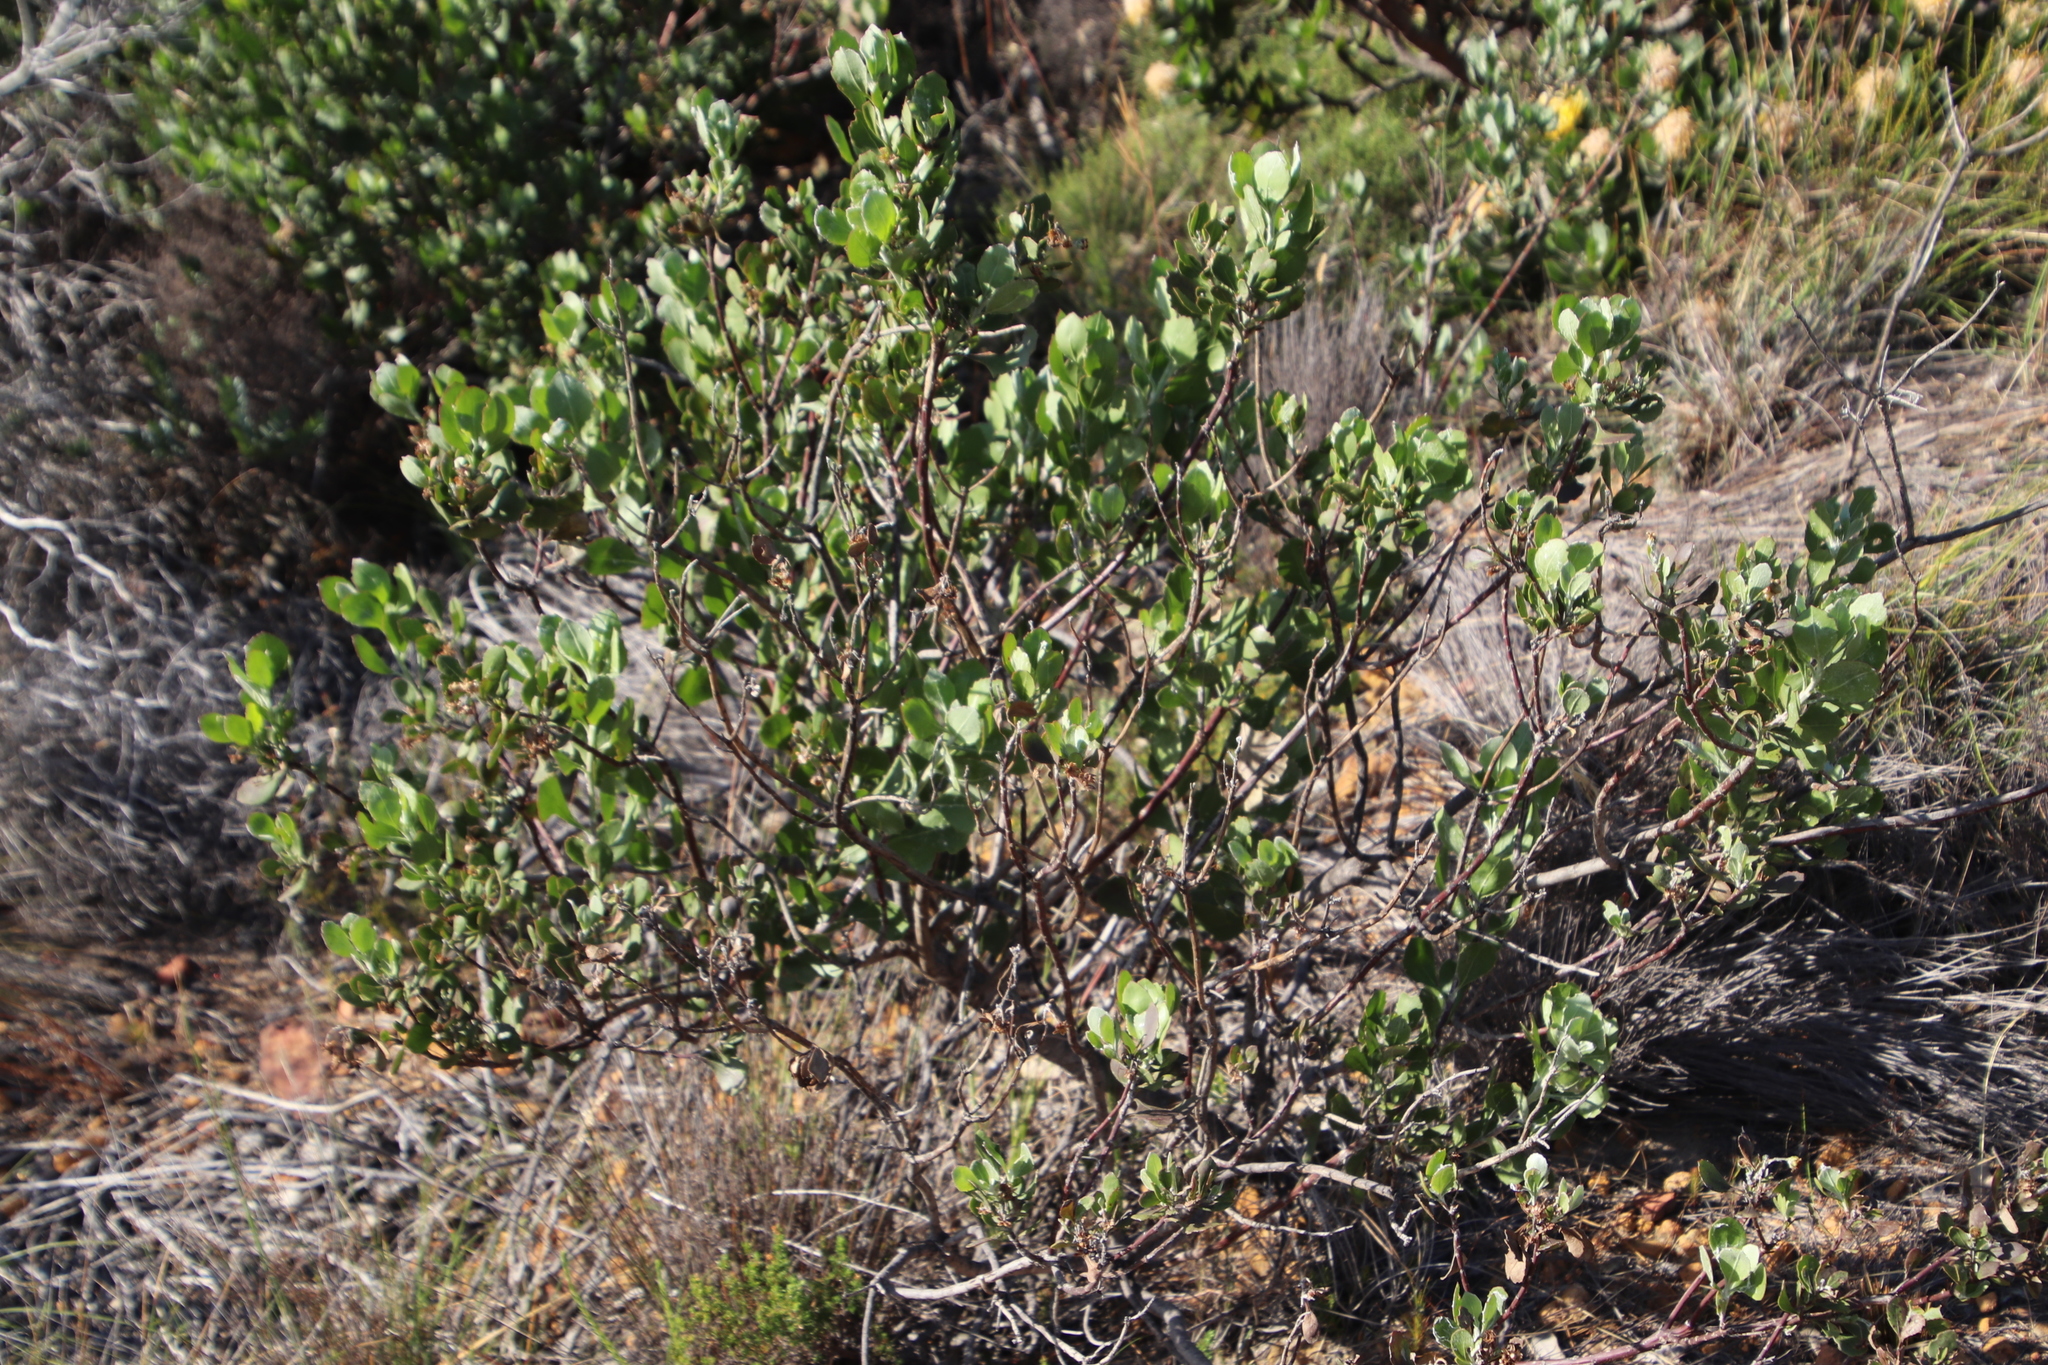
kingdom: Plantae
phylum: Tracheophyta
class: Magnoliopsida
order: Asterales
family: Asteraceae
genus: Osteospermum
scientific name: Osteospermum moniliferum
